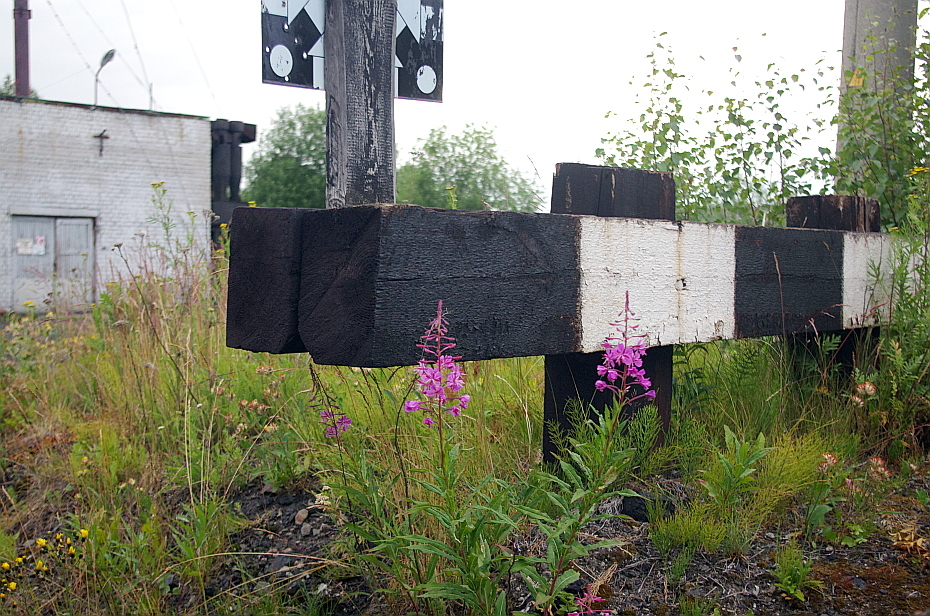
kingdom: Plantae
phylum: Tracheophyta
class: Magnoliopsida
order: Myrtales
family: Onagraceae
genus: Chamaenerion
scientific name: Chamaenerion angustifolium
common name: Fireweed
